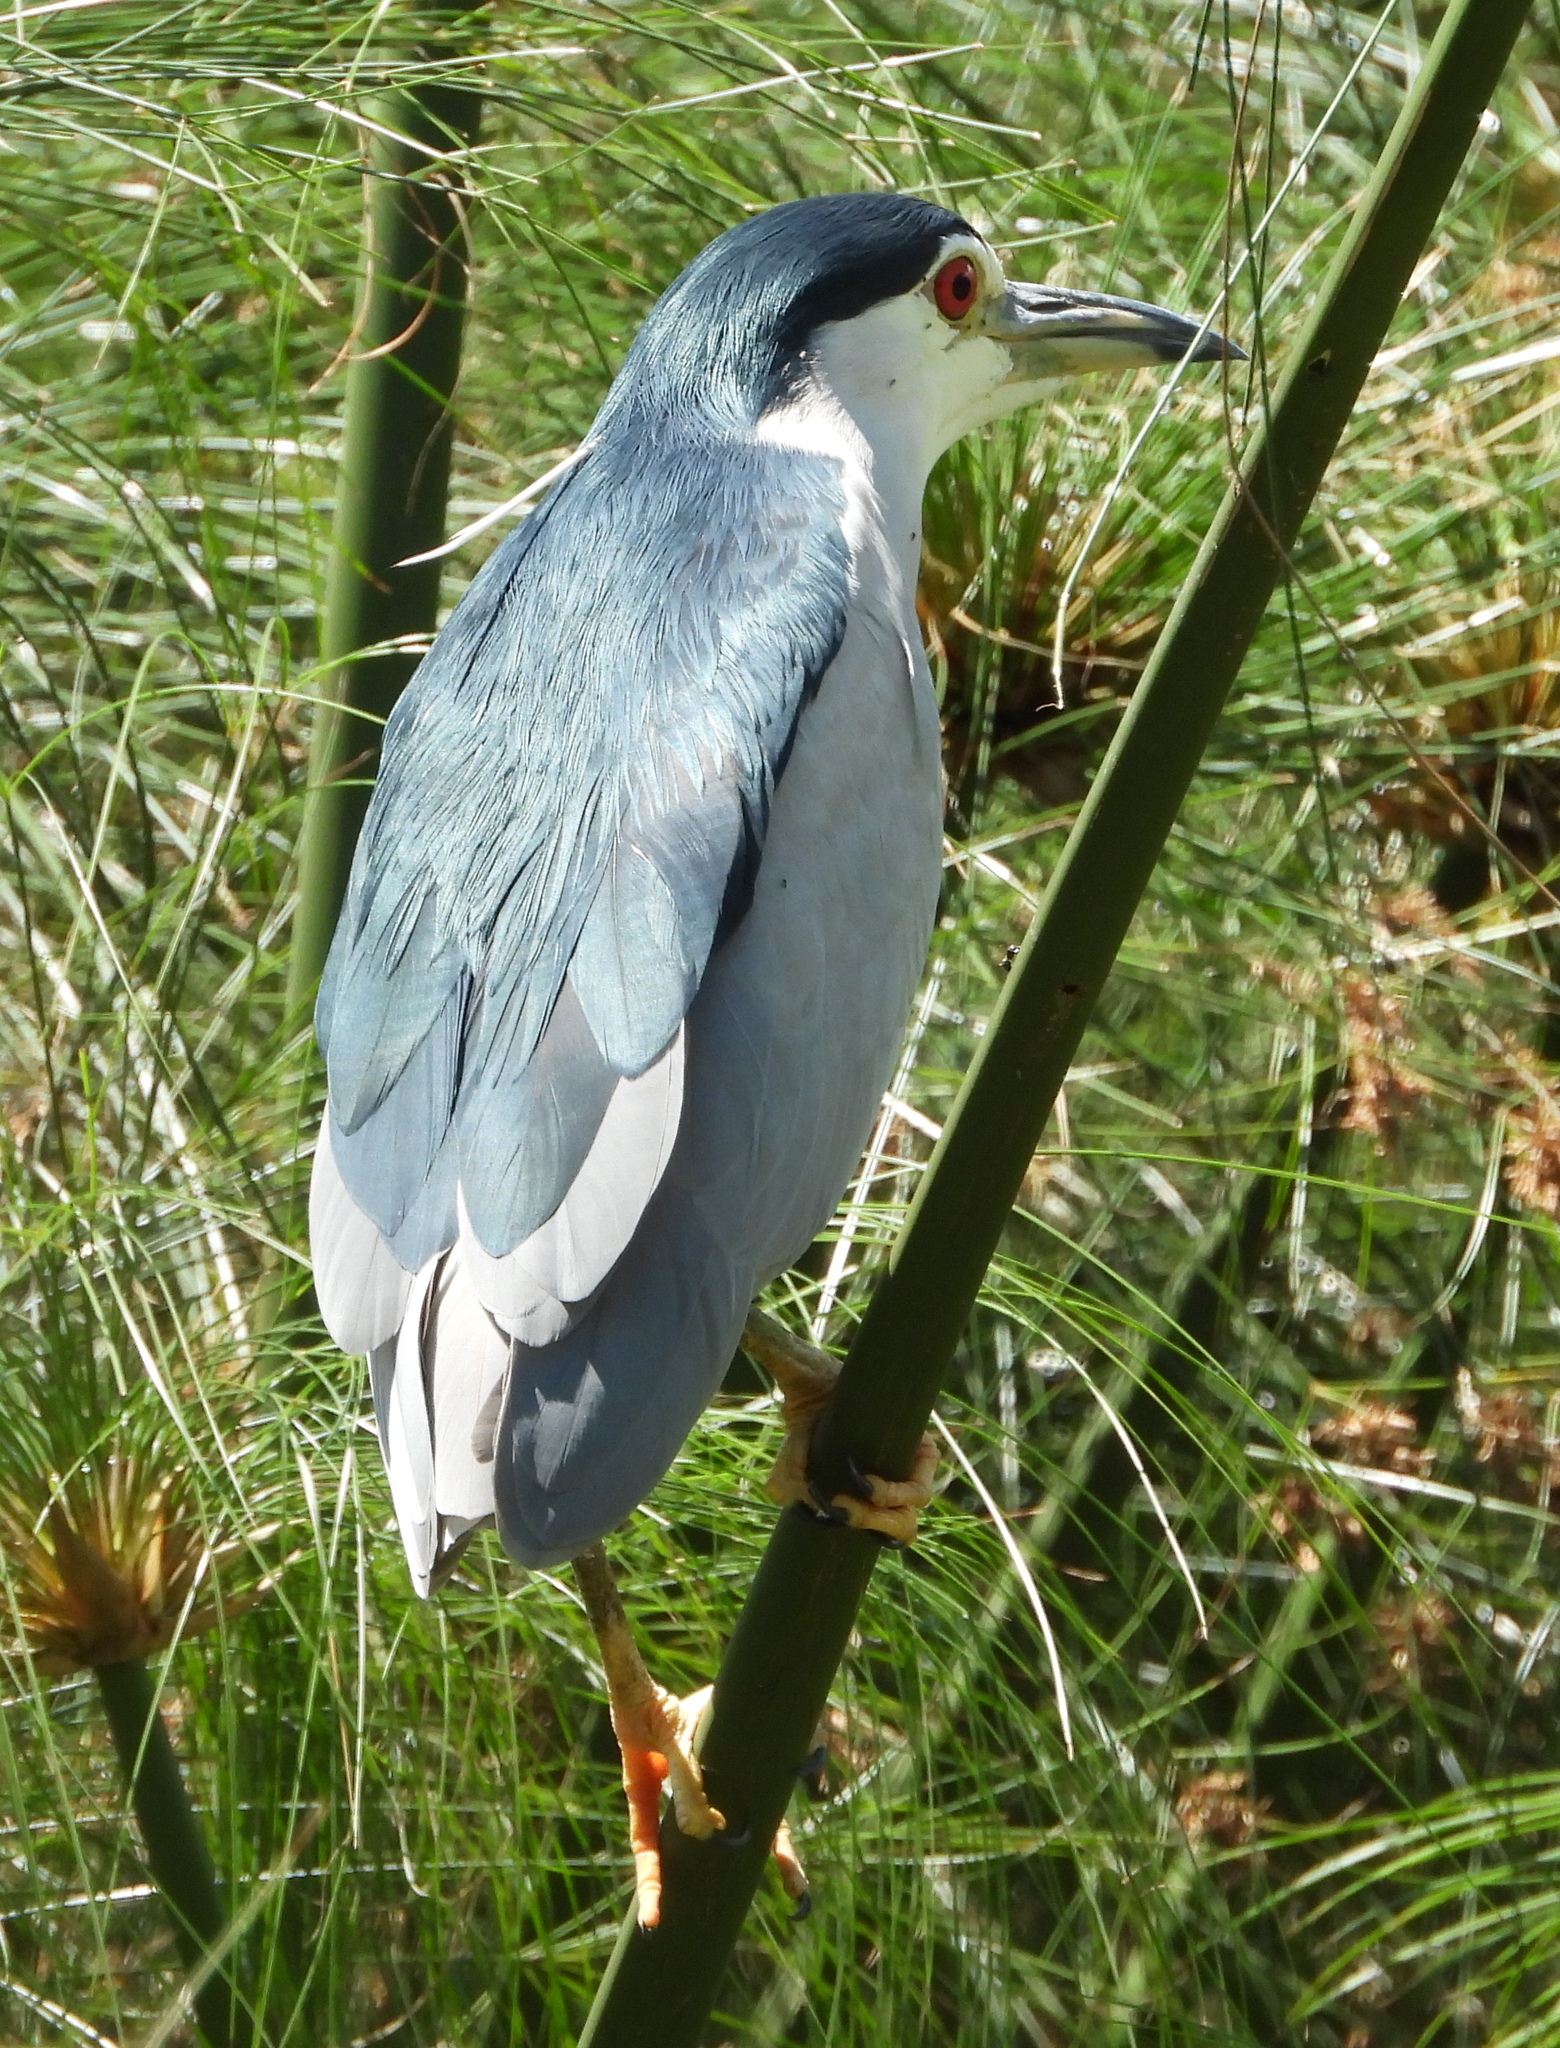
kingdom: Animalia
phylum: Chordata
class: Aves
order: Pelecaniformes
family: Ardeidae
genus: Nycticorax
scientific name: Nycticorax nycticorax
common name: Black-crowned night heron
